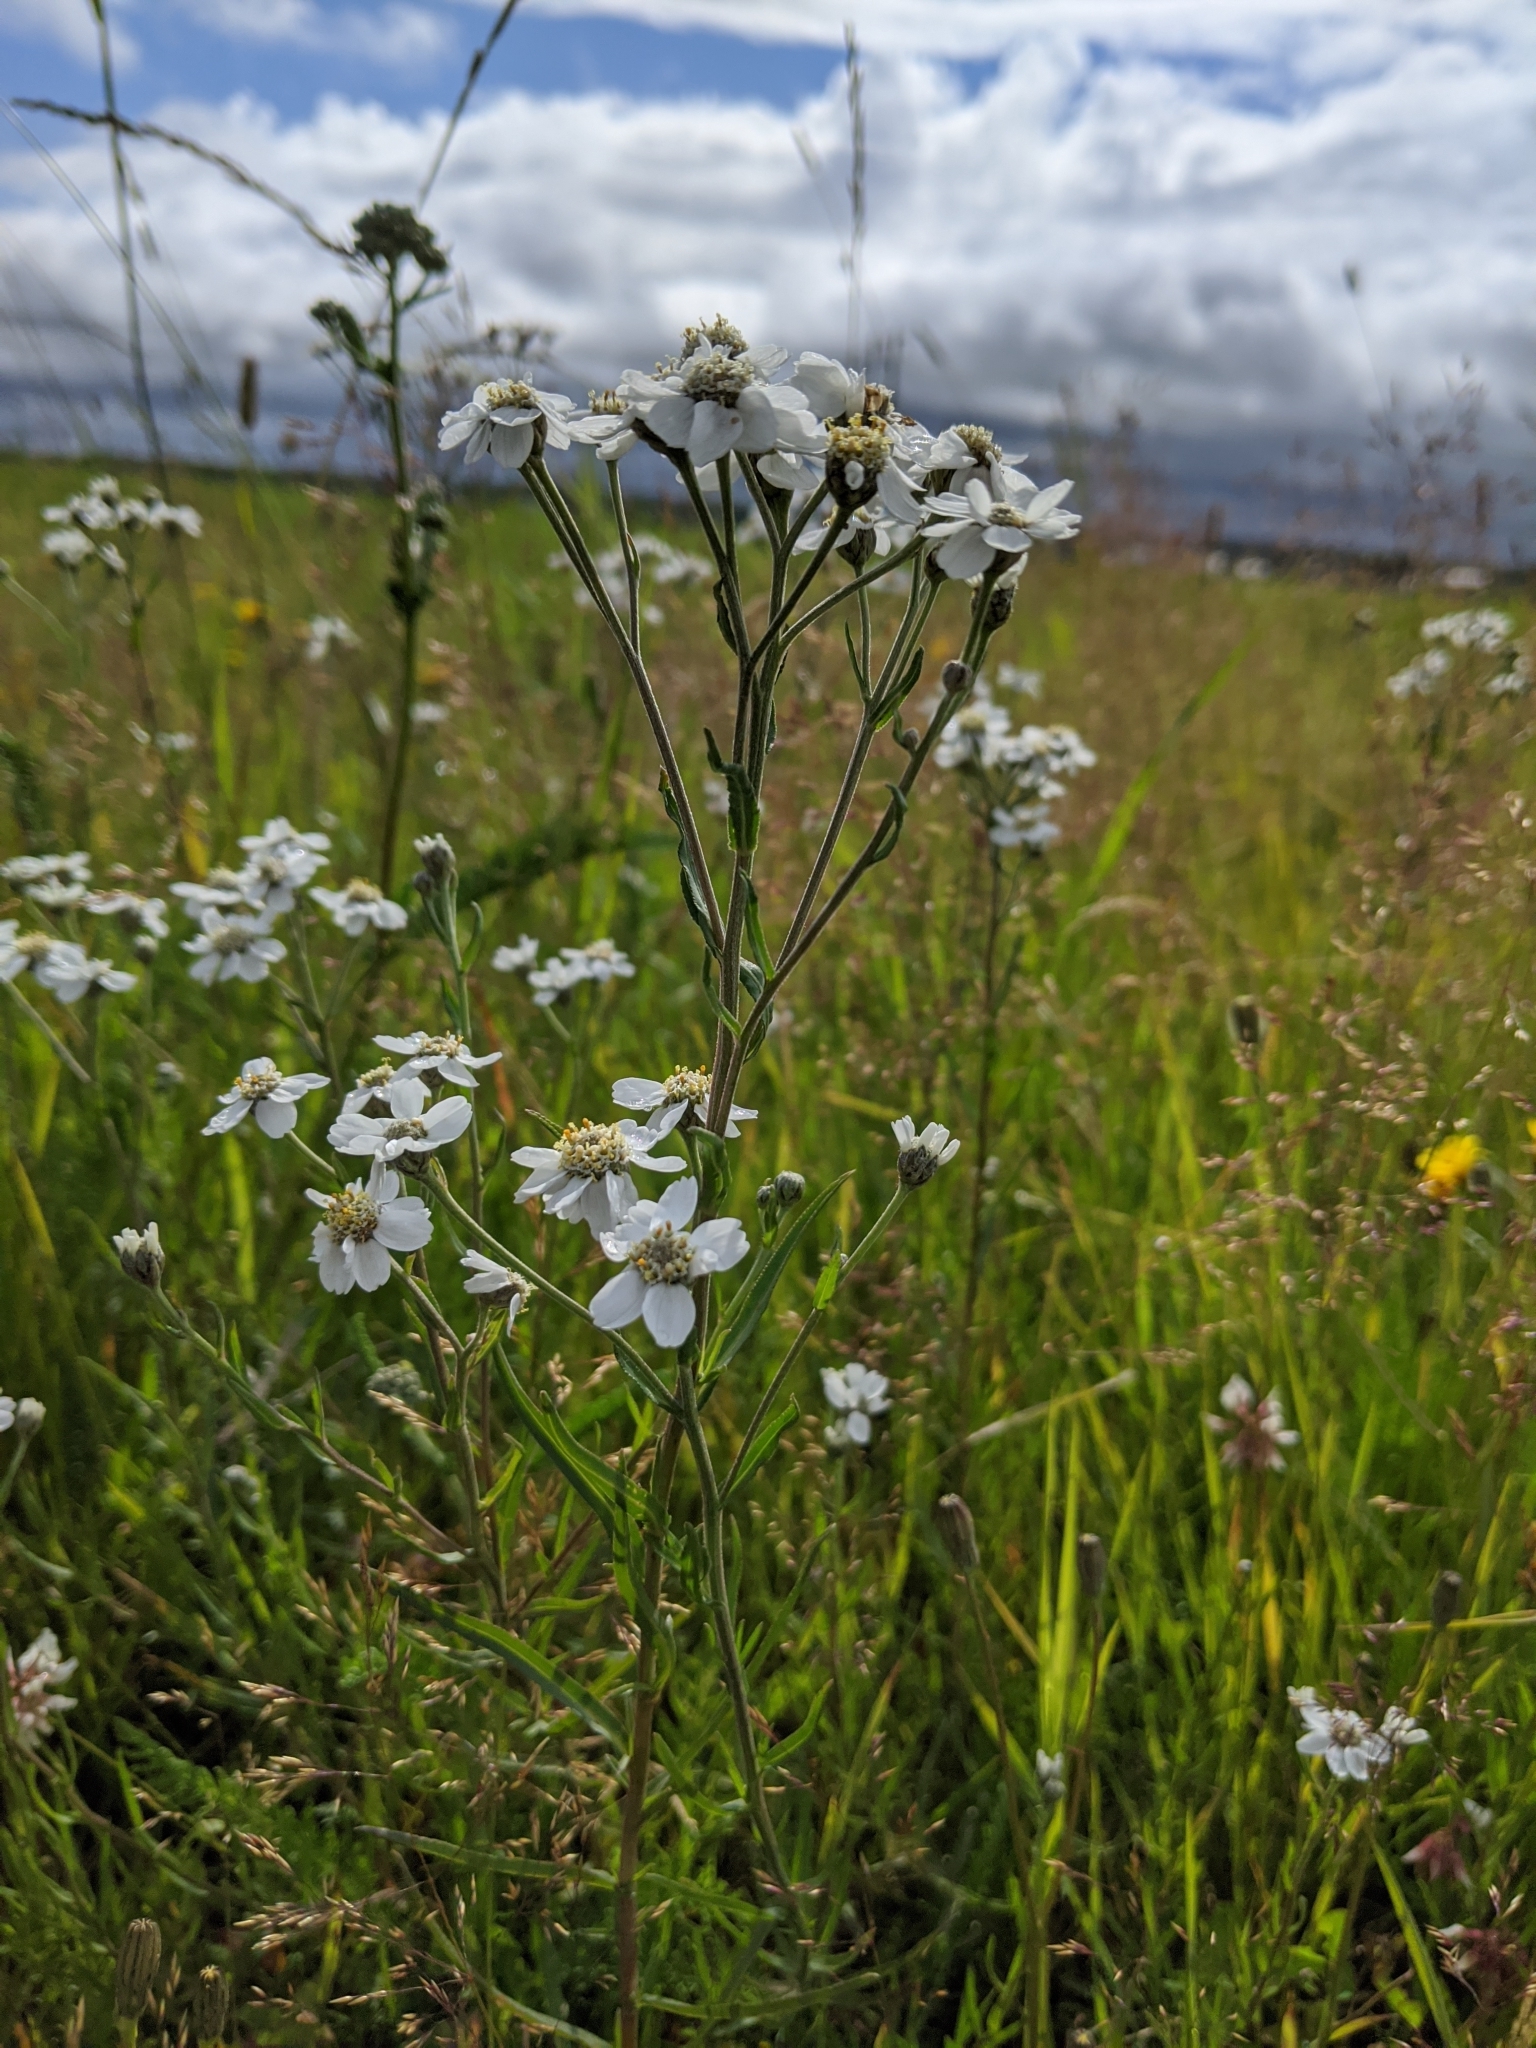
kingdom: Plantae
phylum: Tracheophyta
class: Magnoliopsida
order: Asterales
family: Asteraceae
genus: Achillea
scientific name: Achillea ptarmica
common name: Sneezeweed
